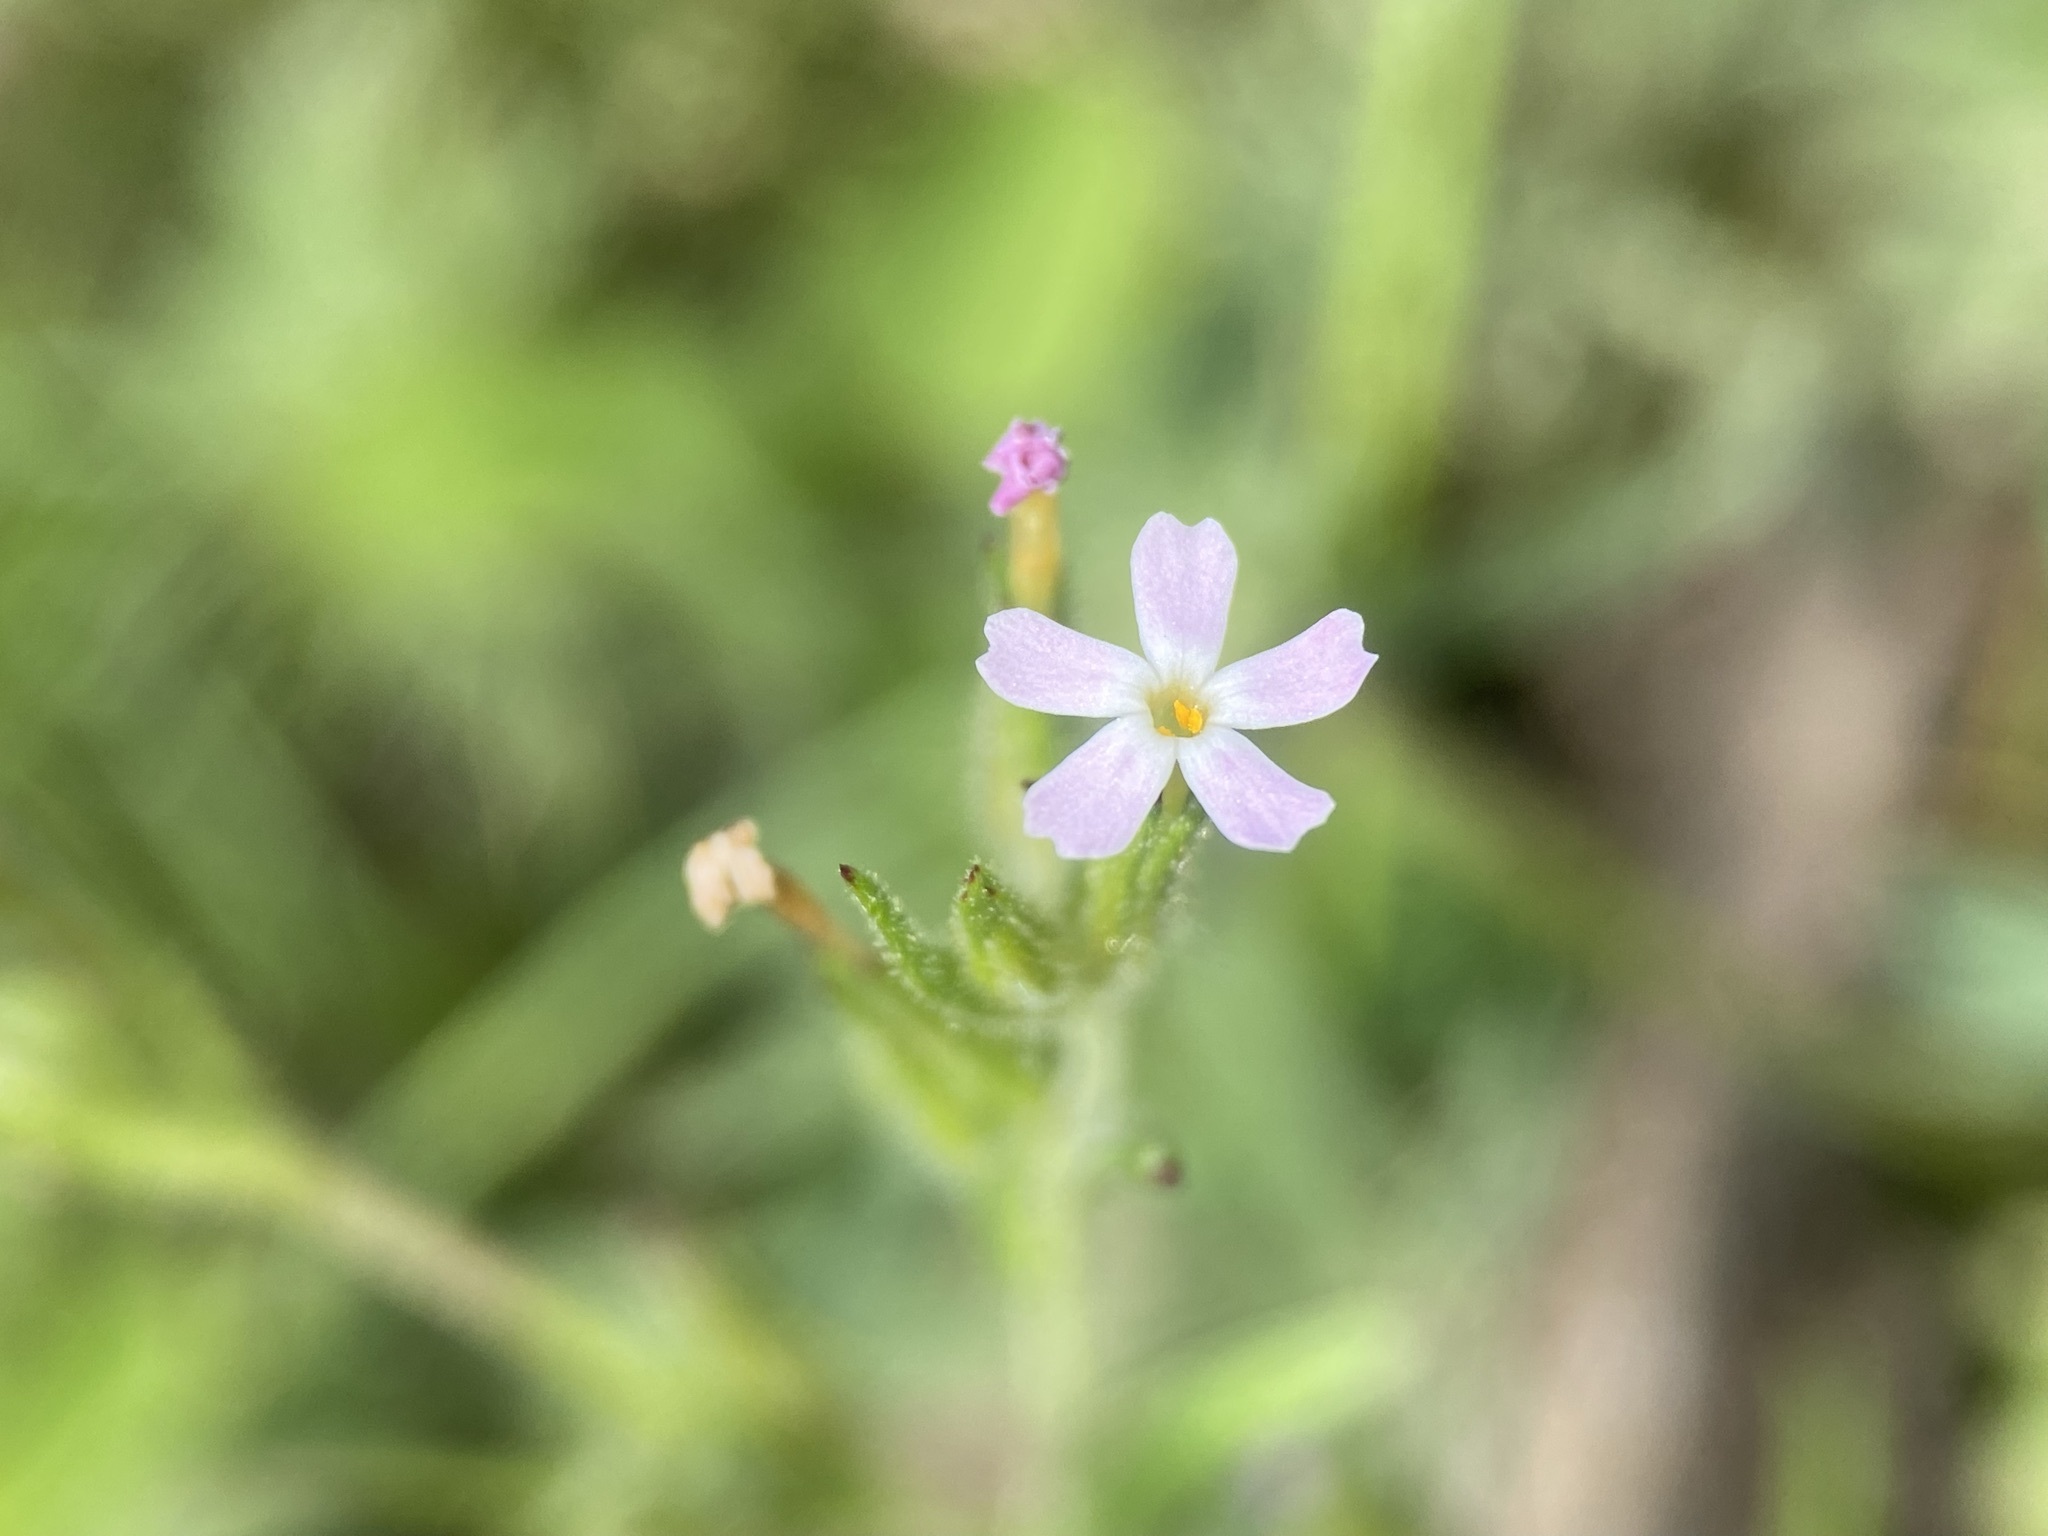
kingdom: Plantae
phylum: Tracheophyta
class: Magnoliopsida
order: Ericales
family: Polemoniaceae
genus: Phlox
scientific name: Phlox gracilis
